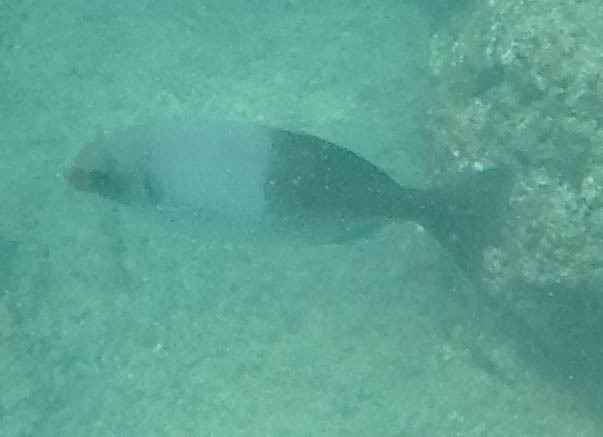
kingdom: Animalia
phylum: Chordata
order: Perciformes
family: Kyphosidae
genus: Kyphosus
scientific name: Kyphosus hawaiiensis
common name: Hawaiian chub
